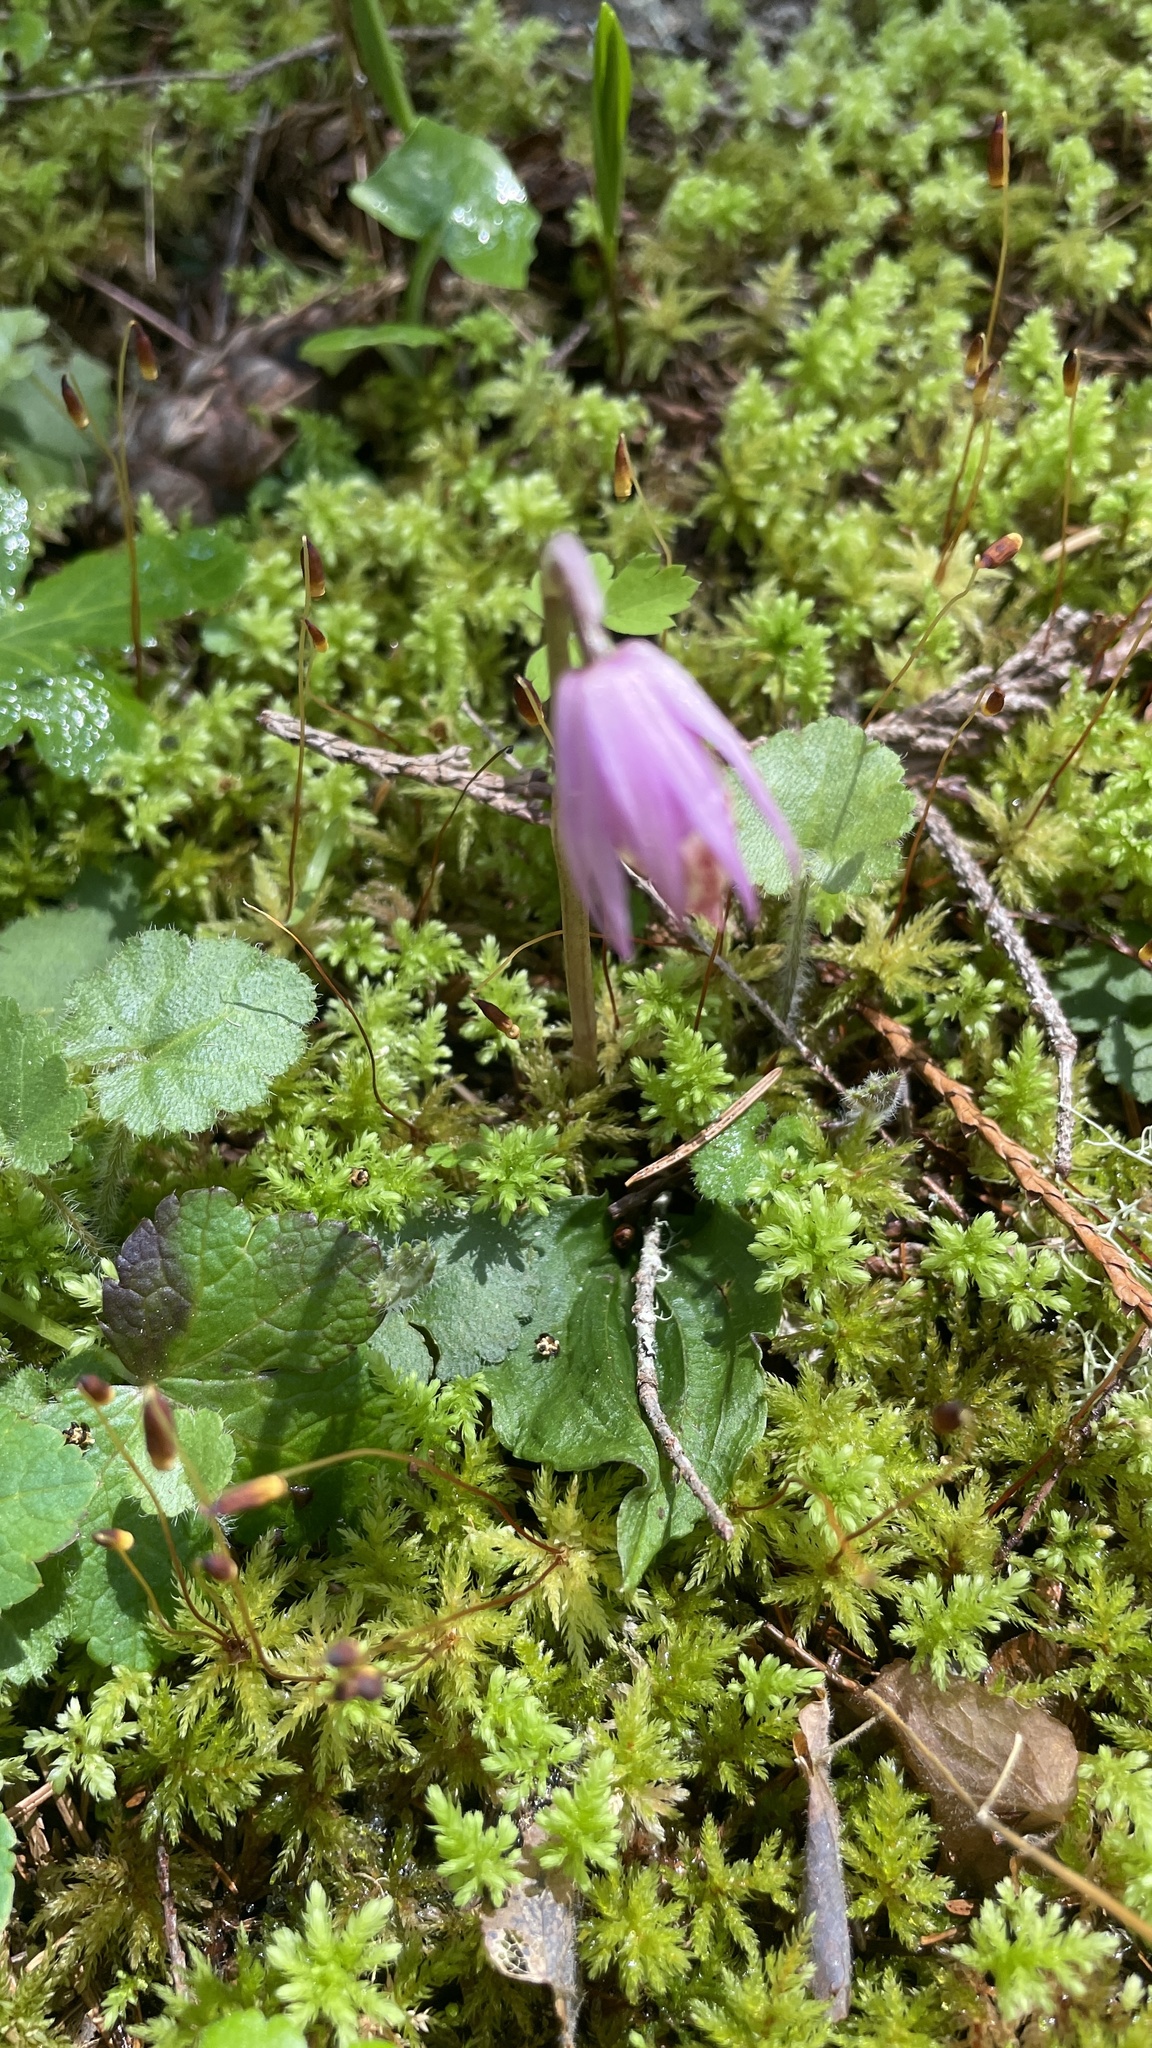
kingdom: Plantae
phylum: Tracheophyta
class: Liliopsida
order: Asparagales
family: Orchidaceae
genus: Calypso
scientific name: Calypso bulbosa
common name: Calypso
